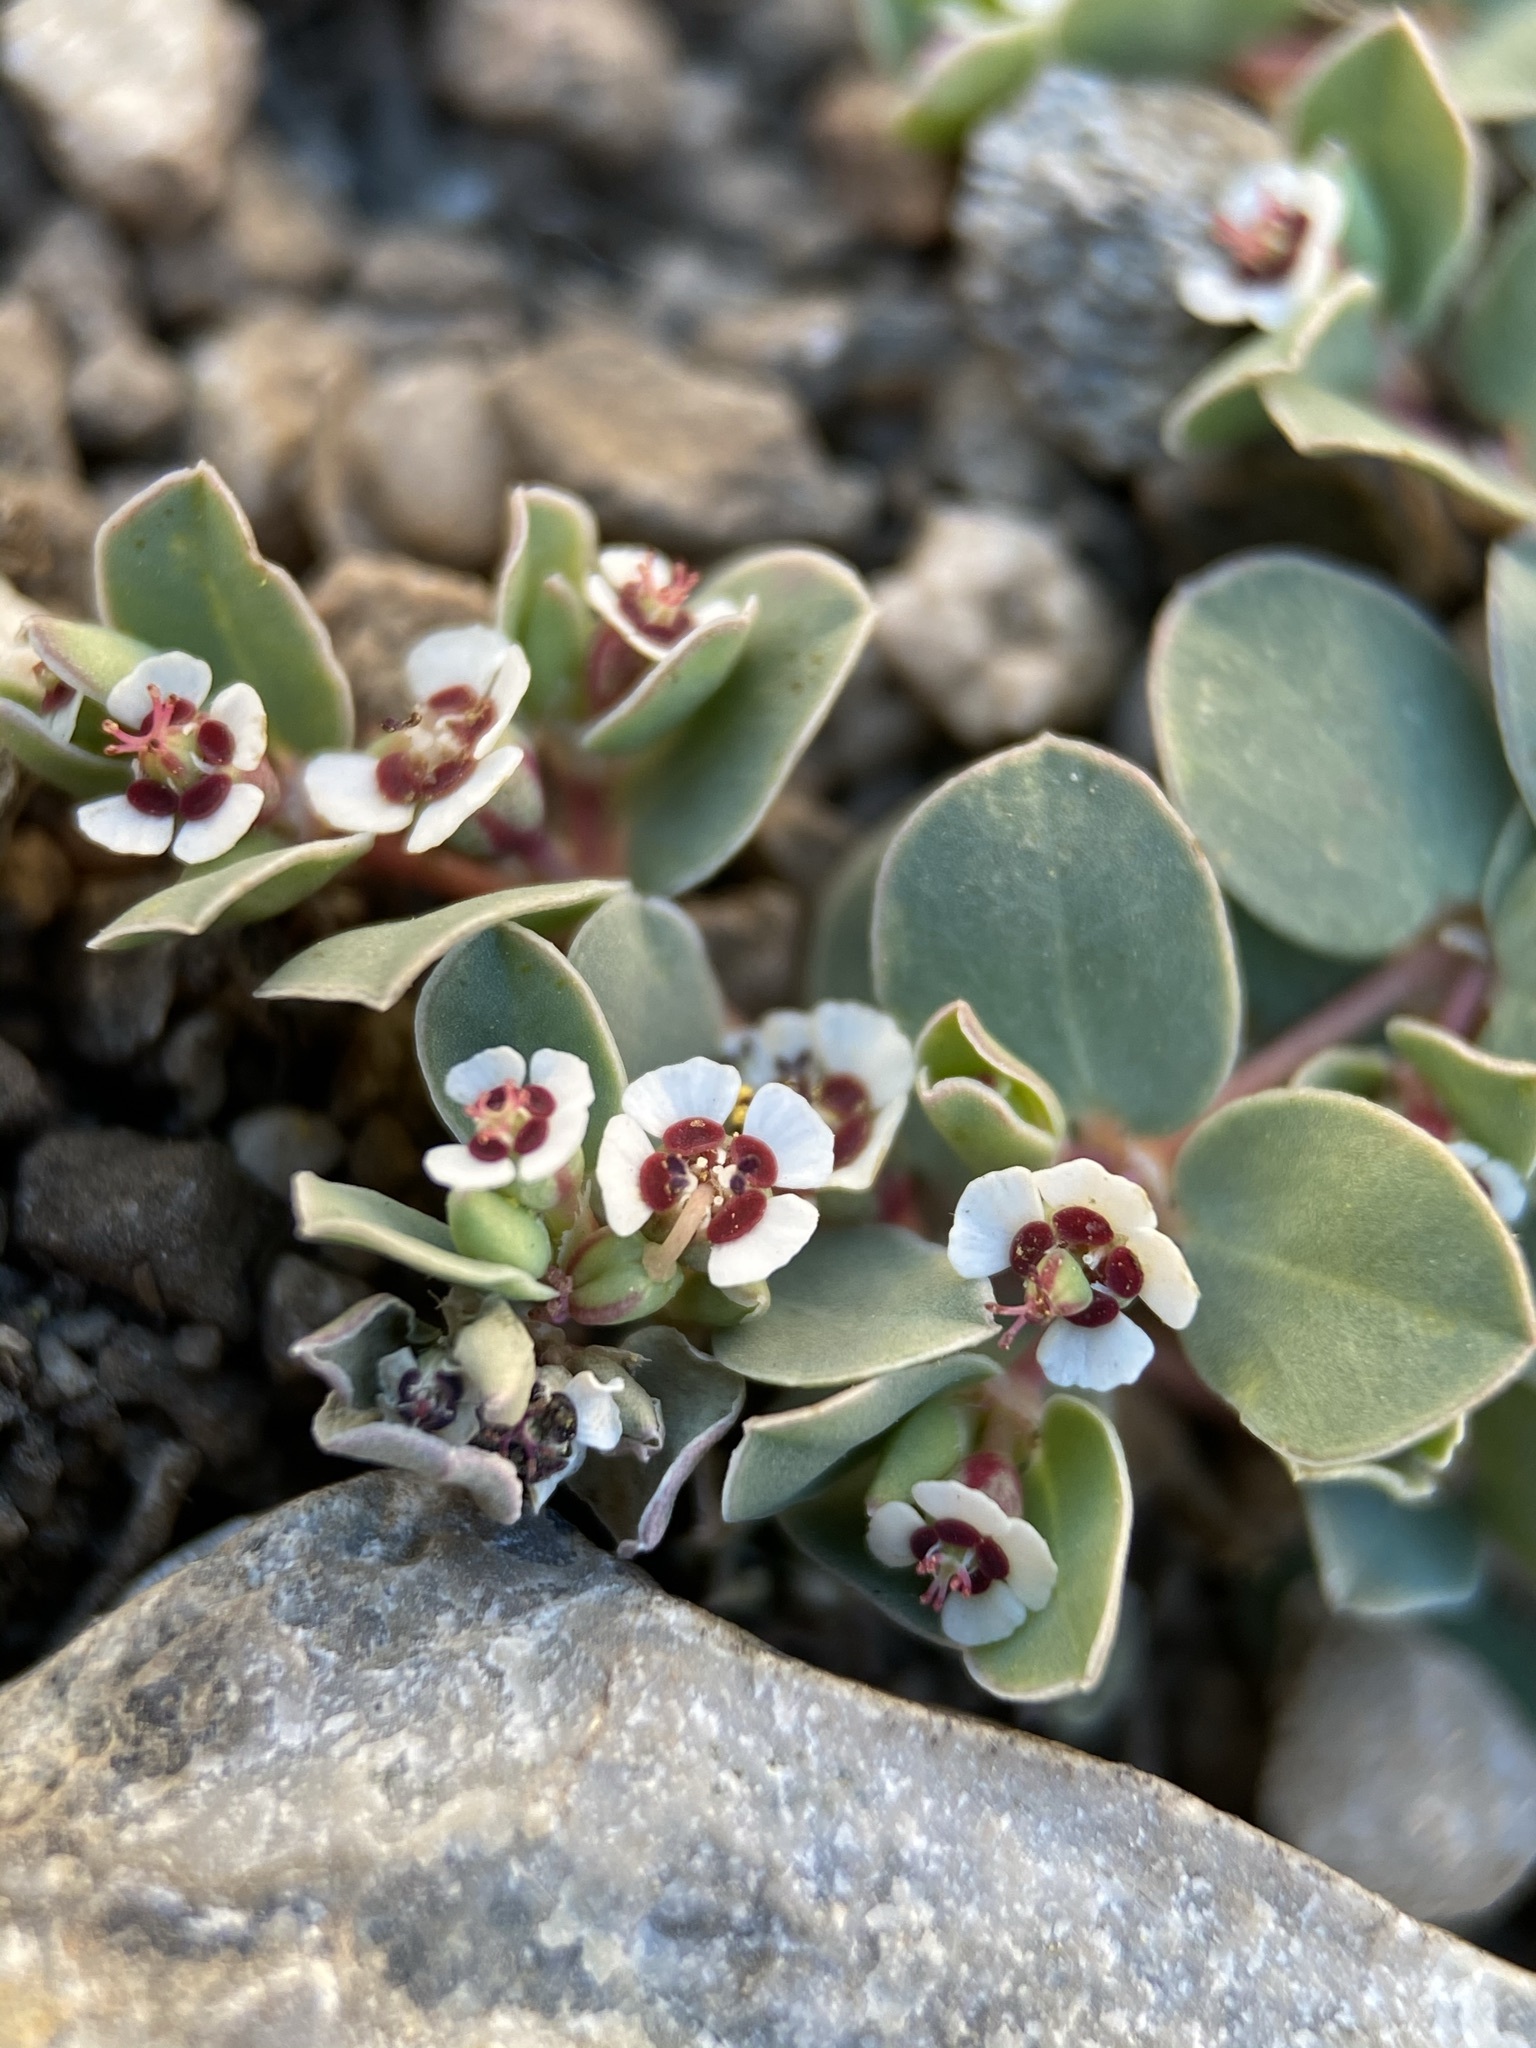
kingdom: Plantae
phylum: Tracheophyta
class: Magnoliopsida
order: Malpighiales
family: Euphorbiaceae
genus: Euphorbia
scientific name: Euphorbia albomarginata
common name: Whitemargin sandmat
